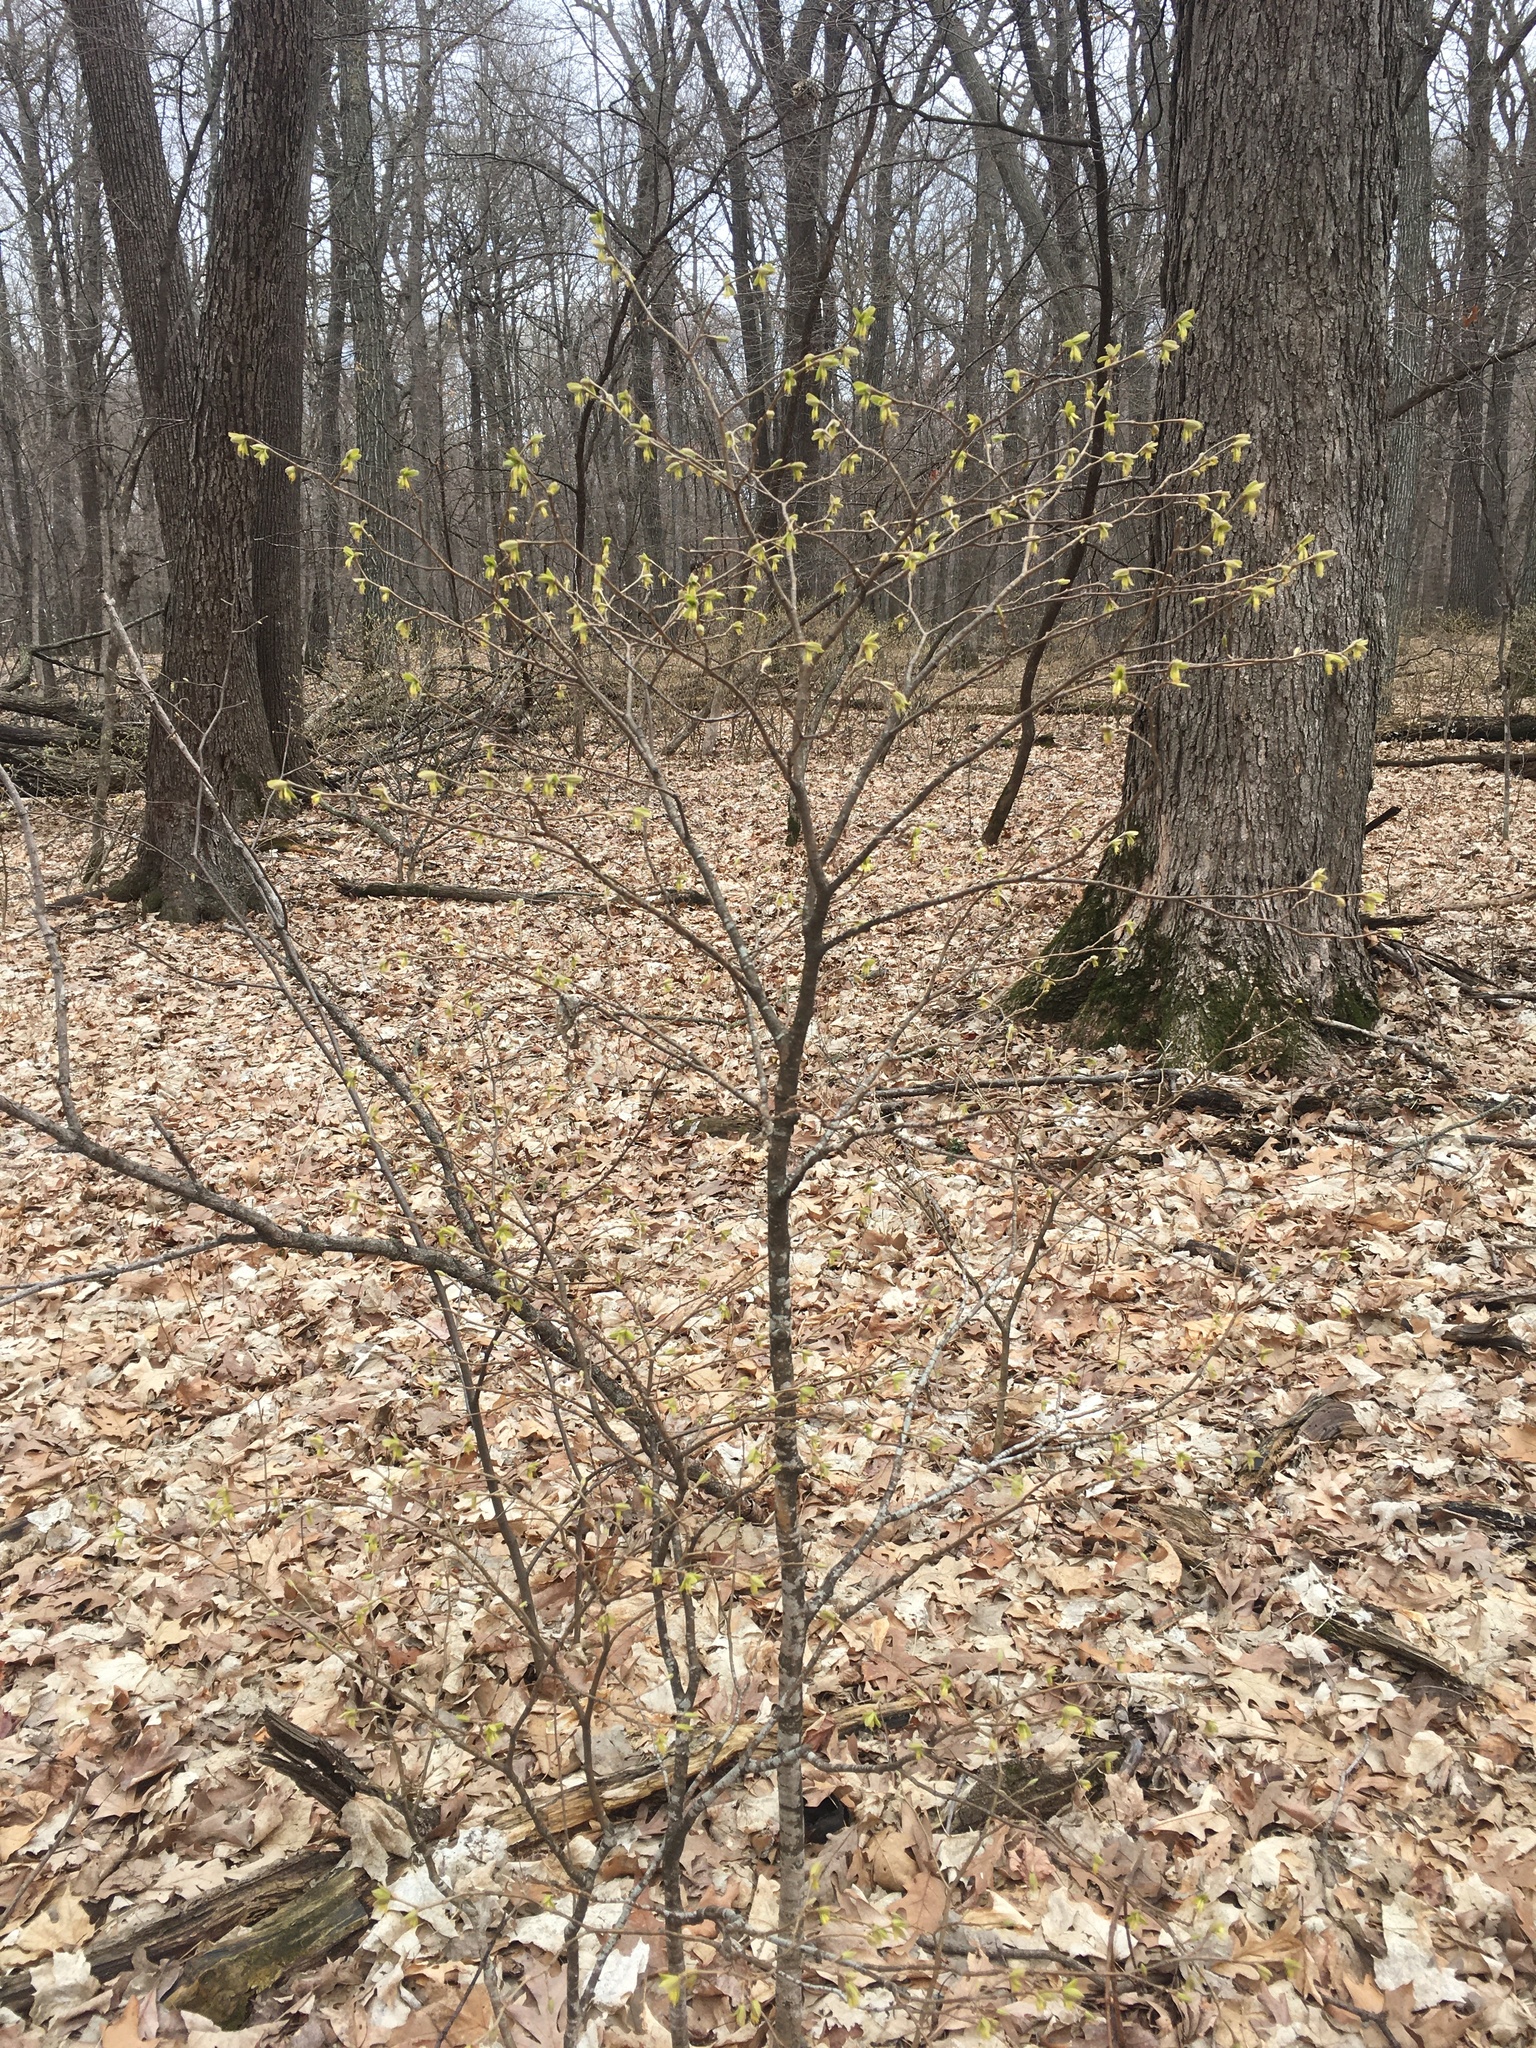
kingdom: Plantae
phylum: Tracheophyta
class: Magnoliopsida
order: Malvales
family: Thymelaeaceae
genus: Dirca
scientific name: Dirca palustris
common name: Leatherwood
